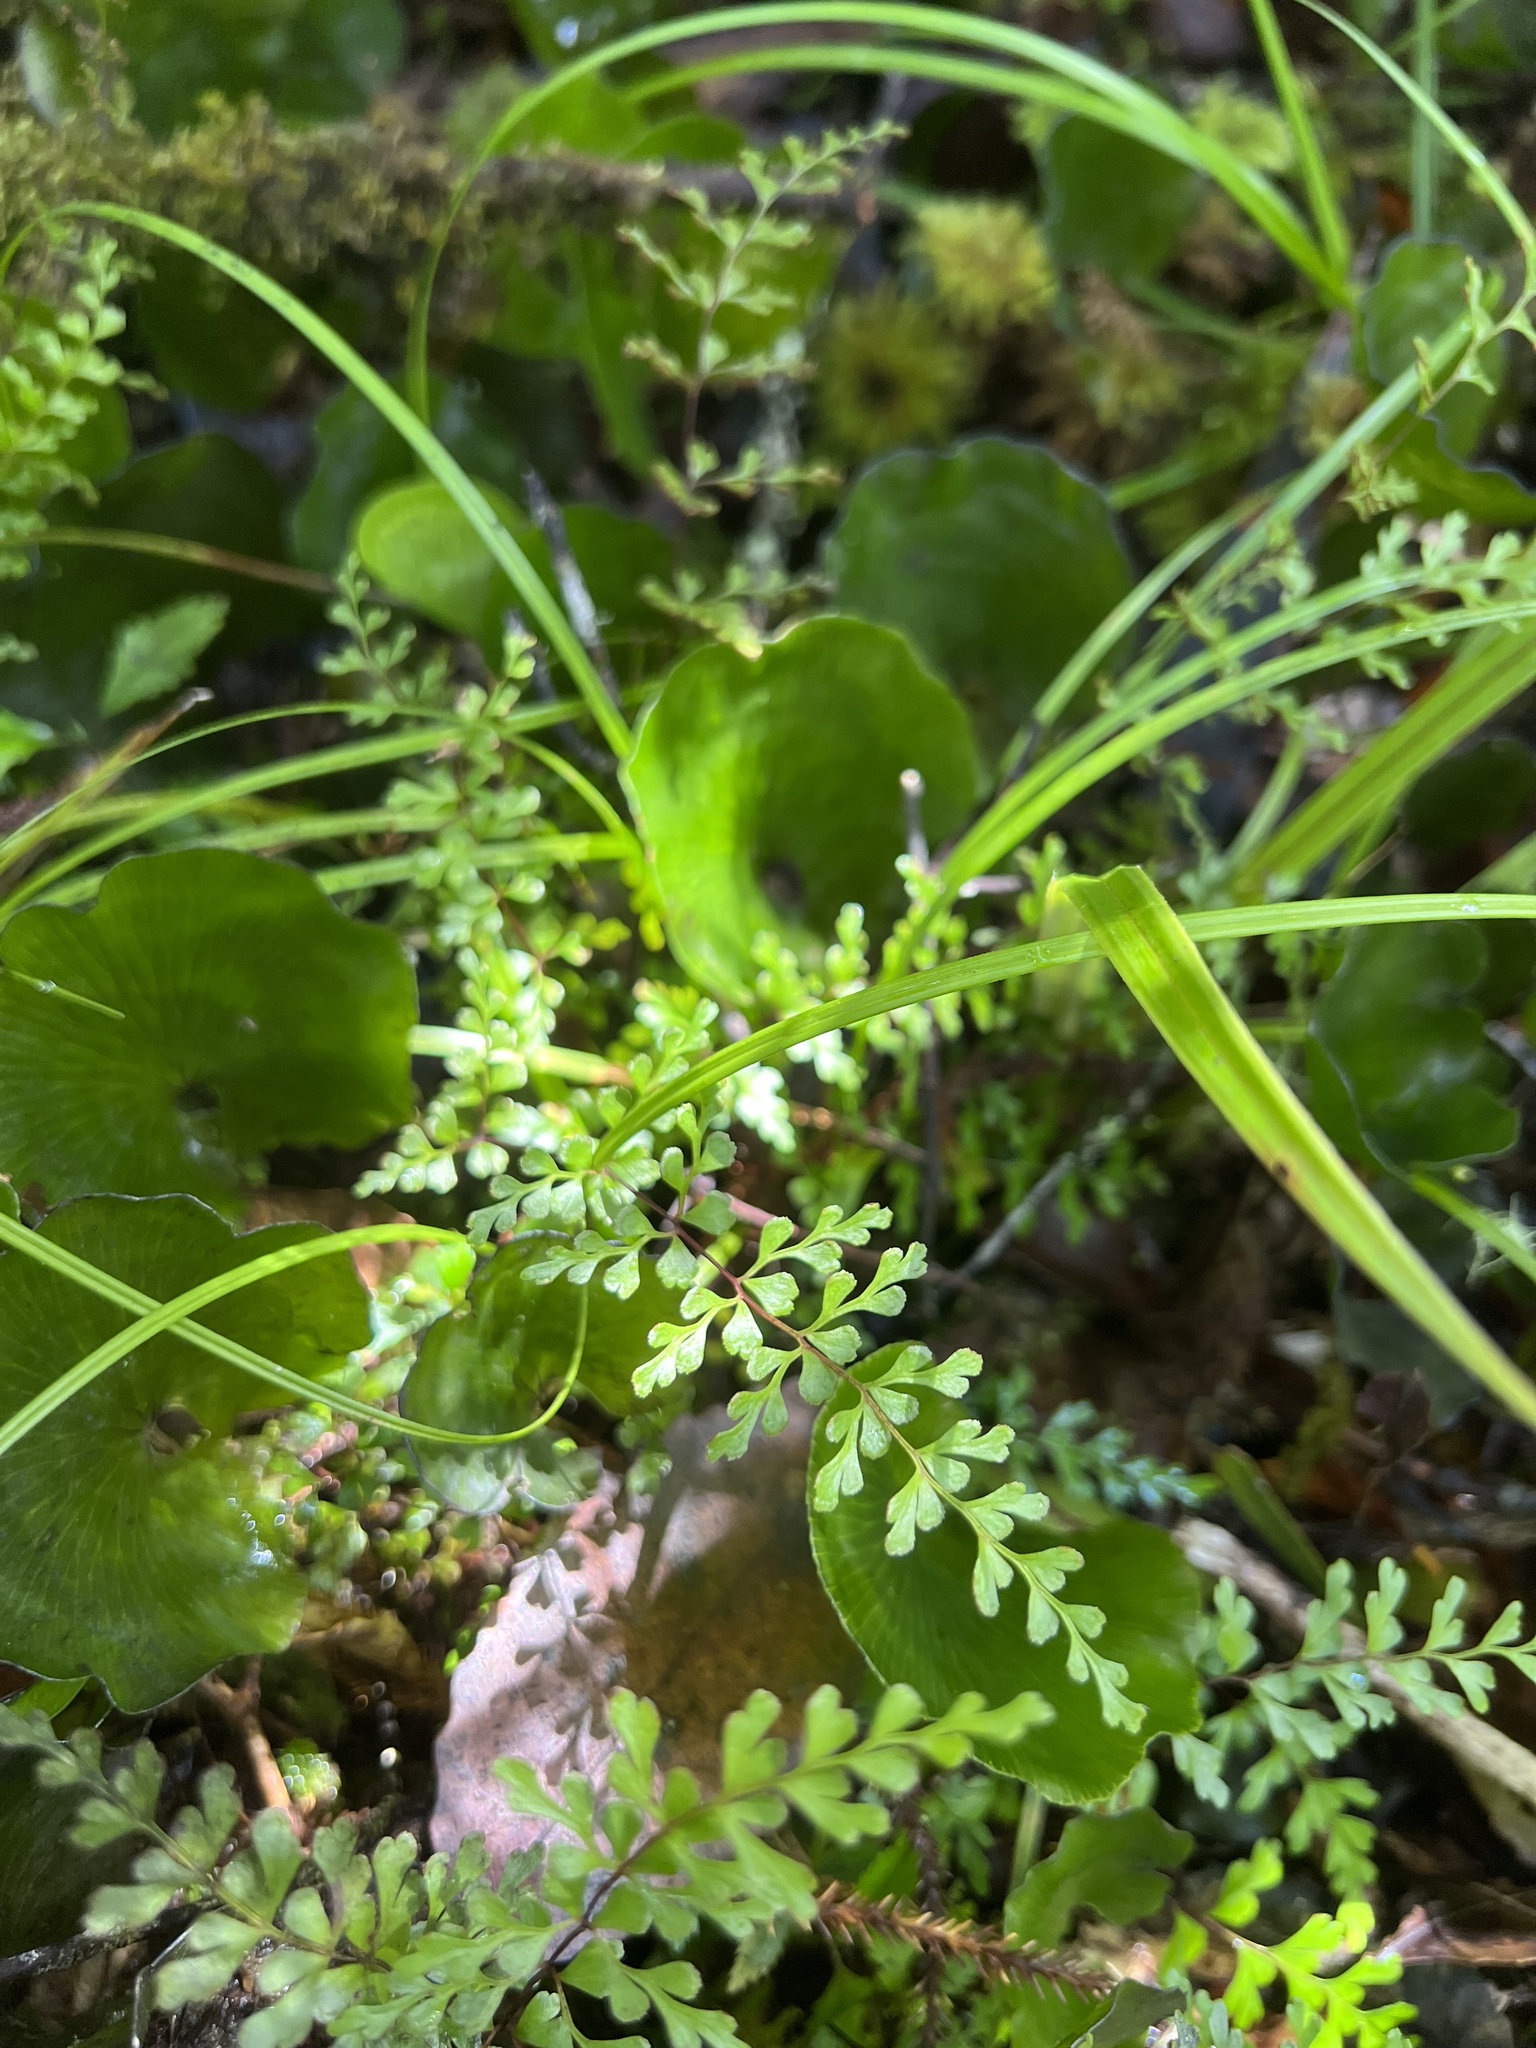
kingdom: Plantae
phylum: Tracheophyta
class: Polypodiopsida
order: Polypodiales
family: Lindsaeaceae
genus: Lindsaea
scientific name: Lindsaea trichomanoides
